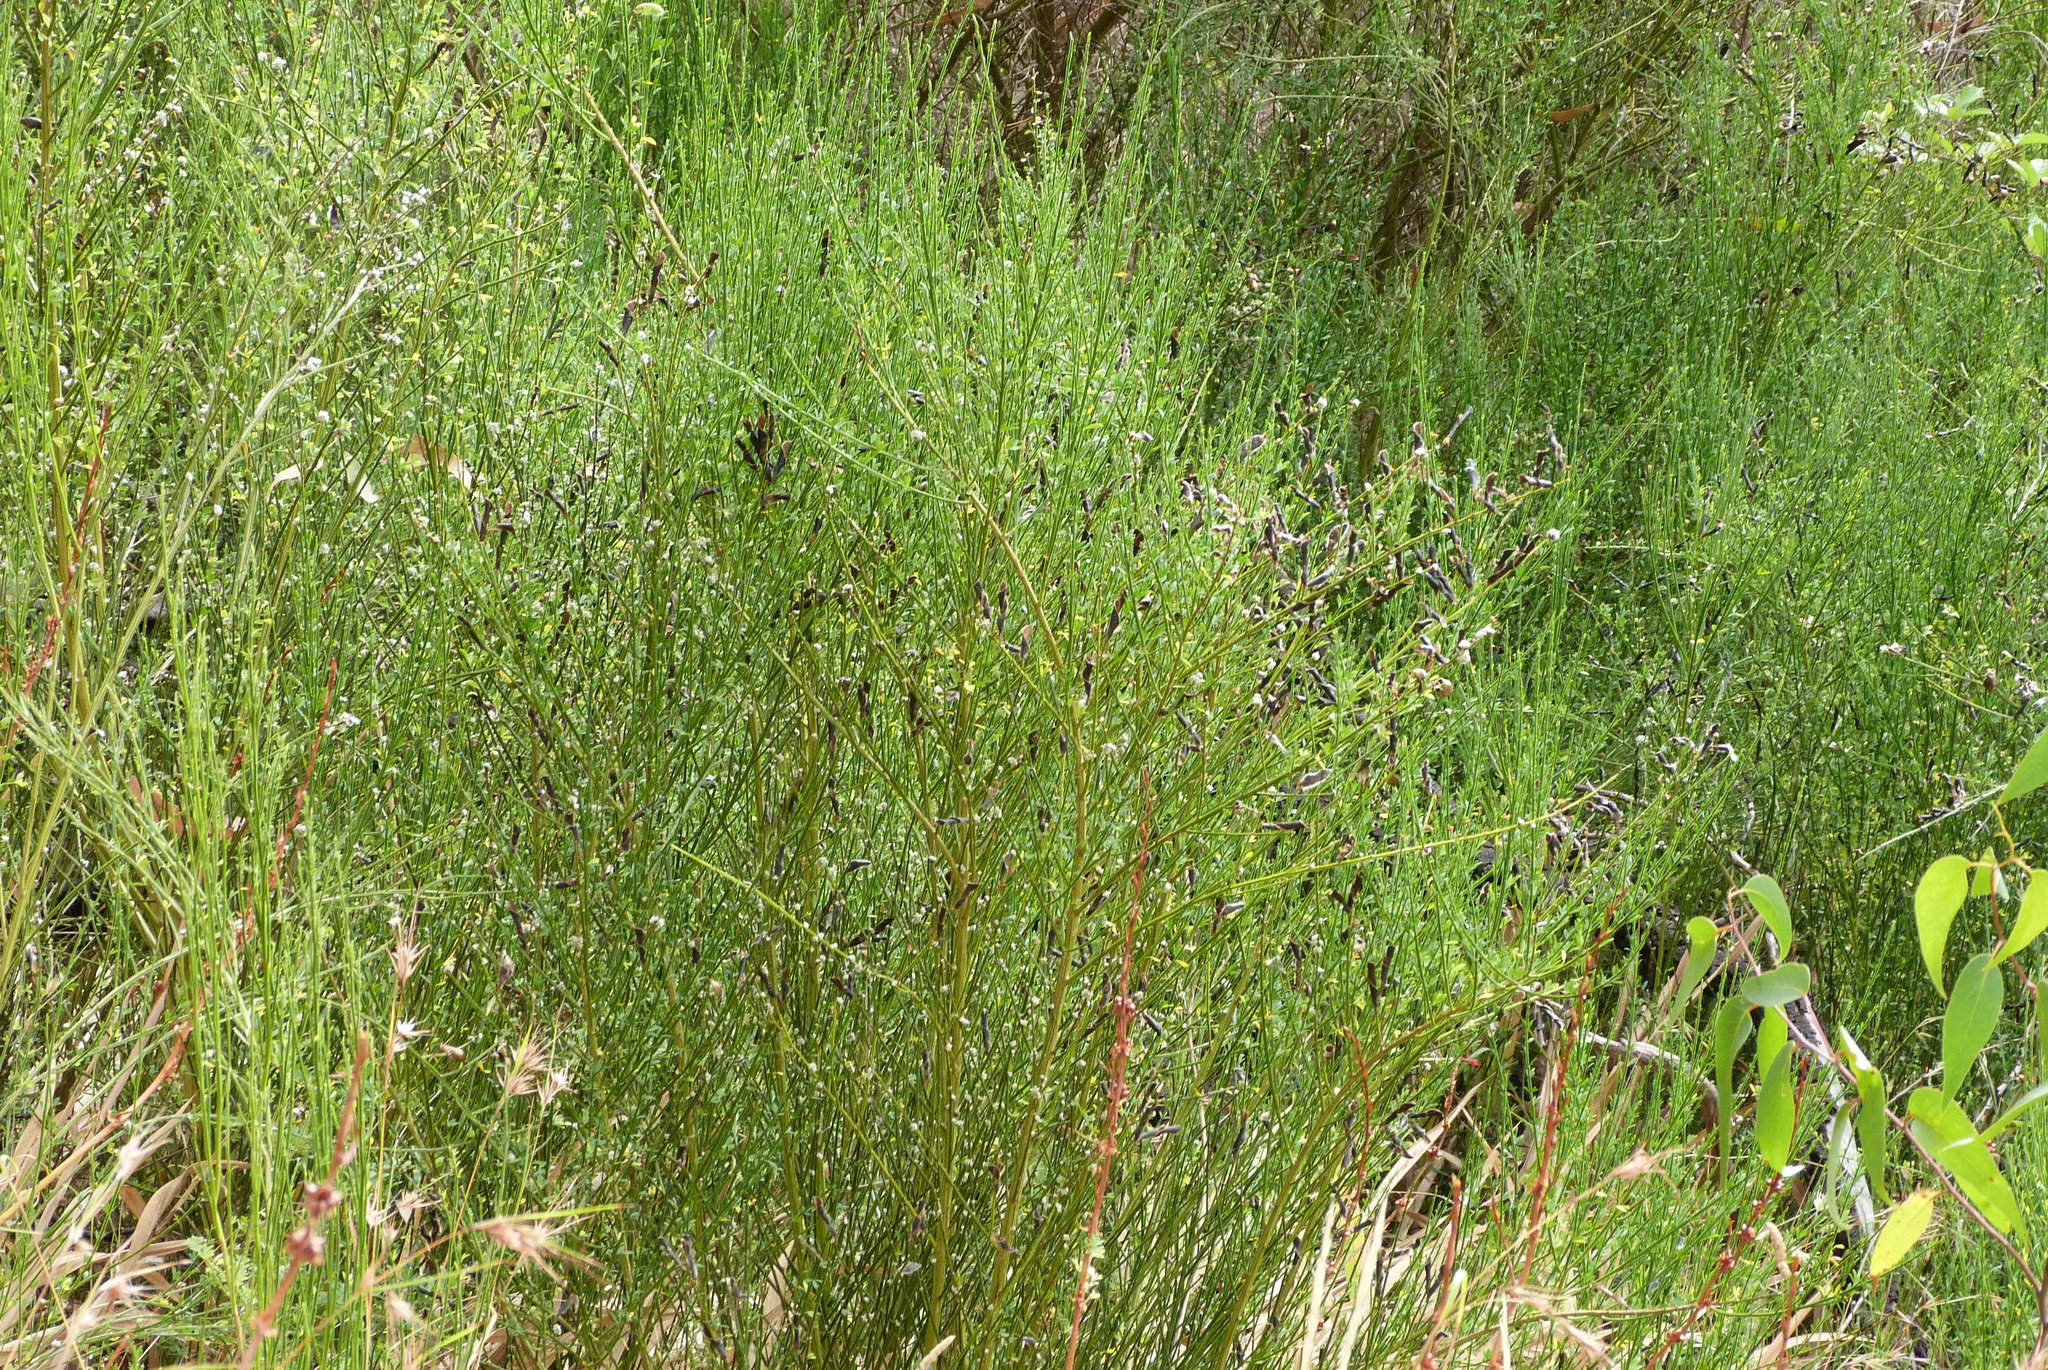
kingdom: Plantae
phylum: Tracheophyta
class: Magnoliopsida
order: Fabales
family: Fabaceae
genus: Cytisus
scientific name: Cytisus scoparius
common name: Scotch broom
